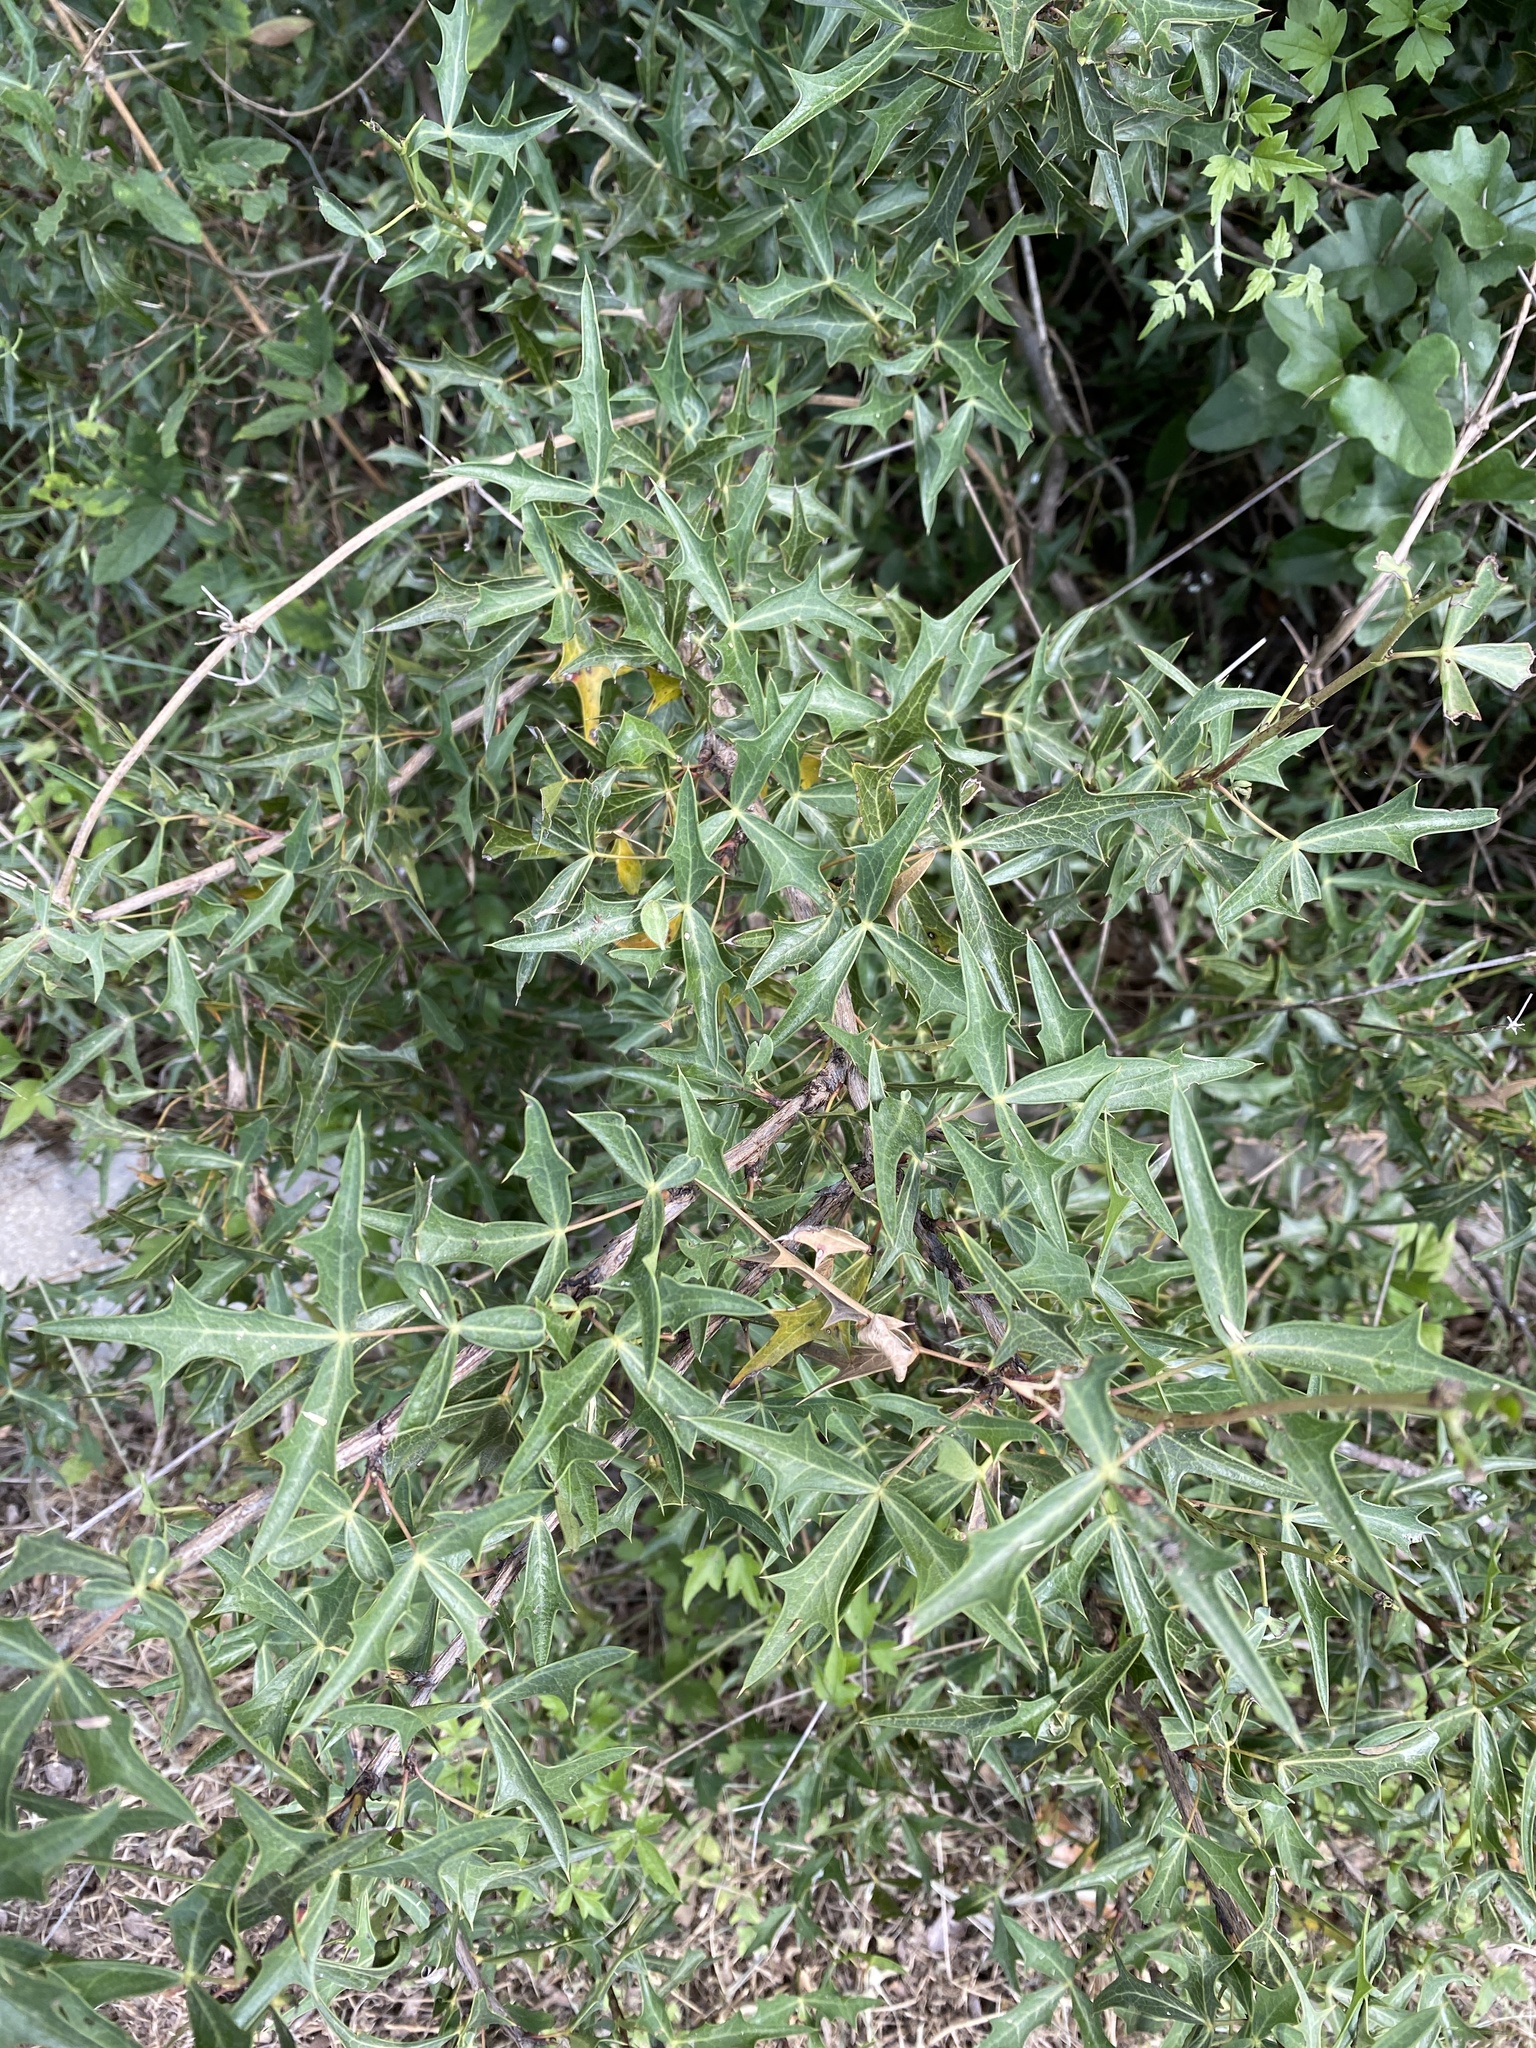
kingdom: Plantae
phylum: Tracheophyta
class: Magnoliopsida
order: Ranunculales
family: Berberidaceae
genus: Alloberberis
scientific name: Alloberberis trifoliolata
